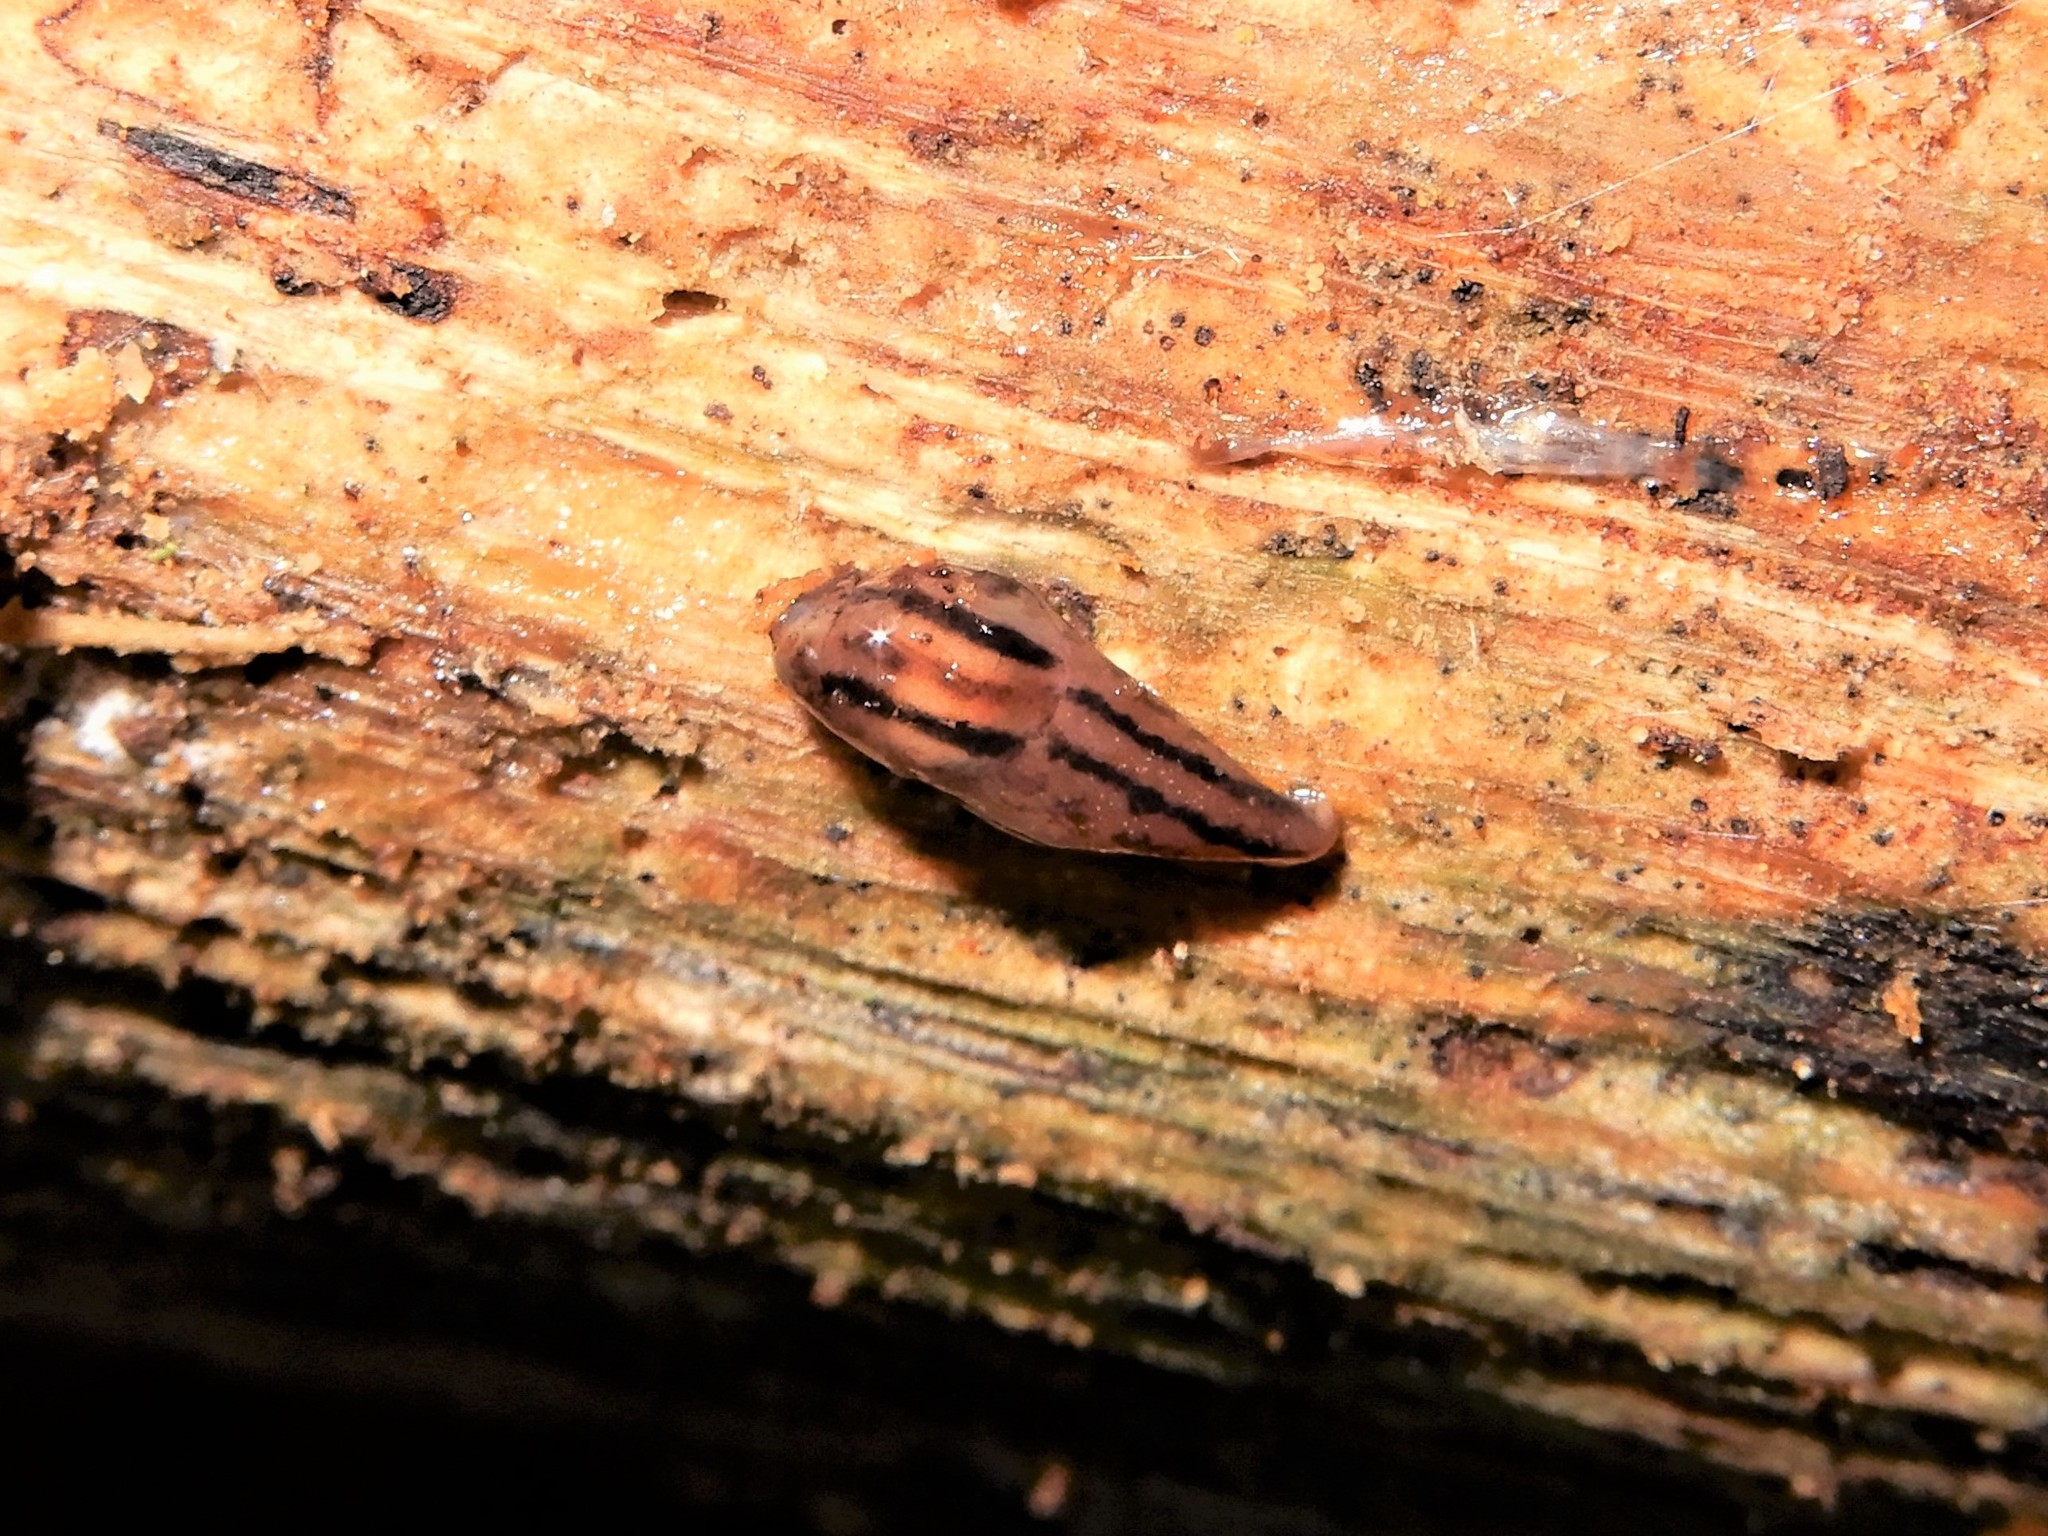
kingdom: Animalia
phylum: Mollusca
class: Gastropoda
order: Stylommatophora
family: Limacidae
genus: Ambigolimax
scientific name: Ambigolimax
